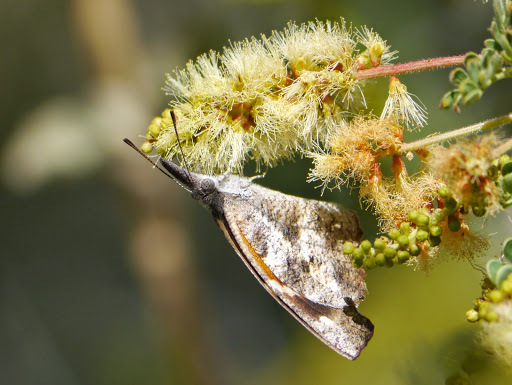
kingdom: Animalia
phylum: Arthropoda
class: Insecta
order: Lepidoptera
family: Nymphalidae
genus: Libytheana
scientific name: Libytheana carinenta
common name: American snout
